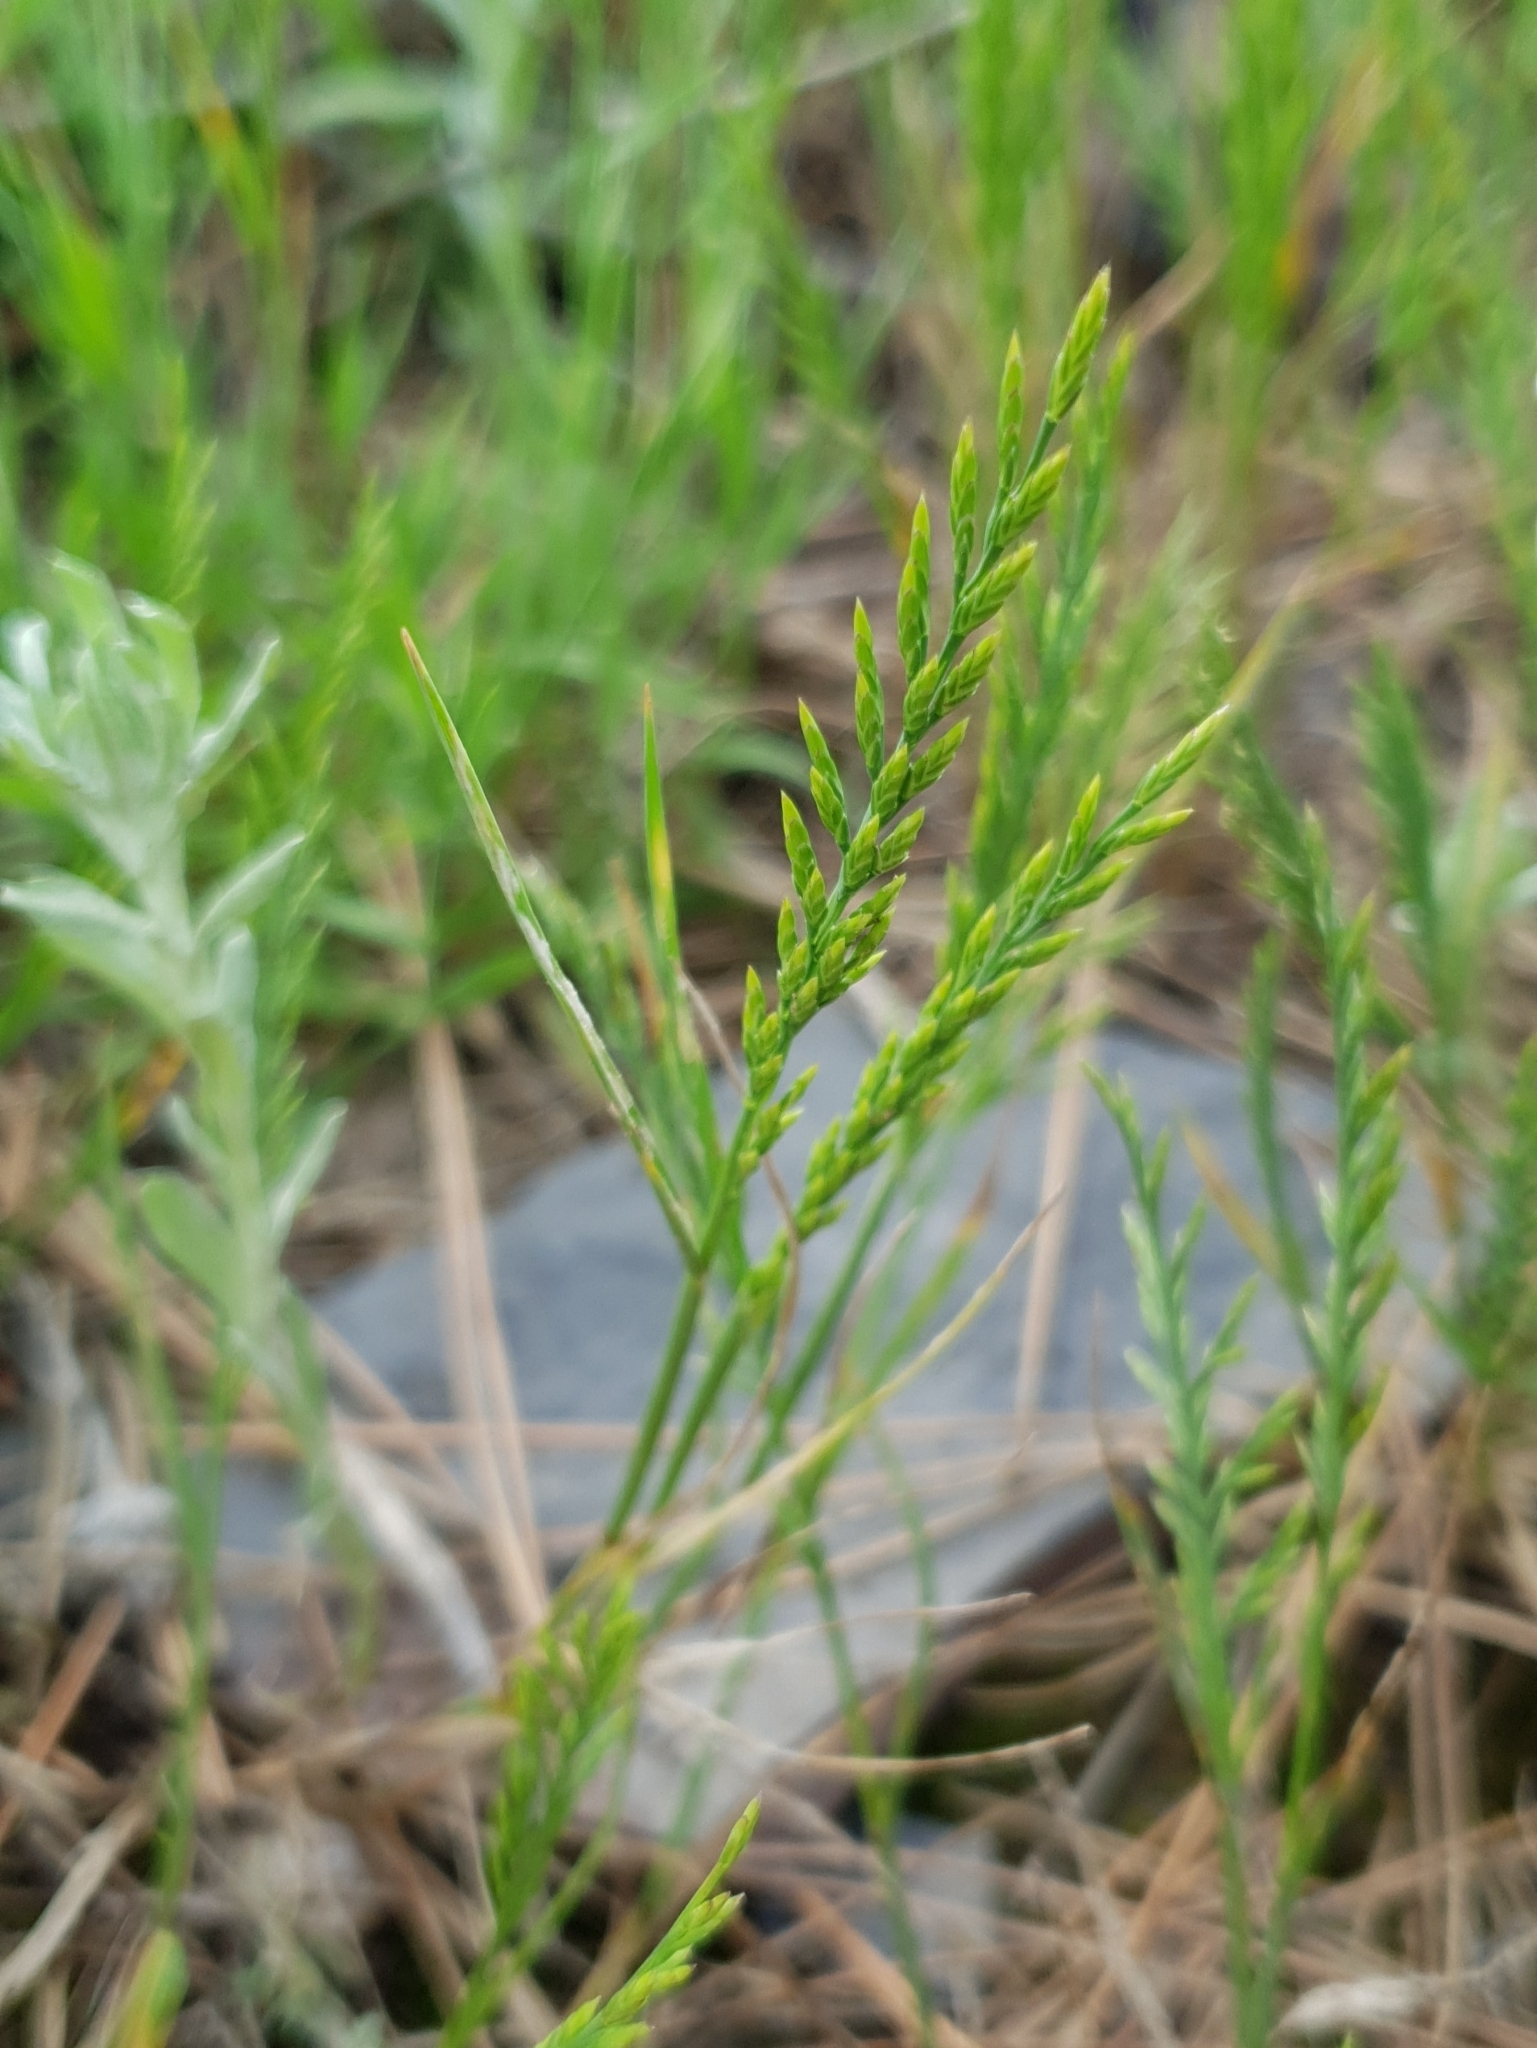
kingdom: Plantae
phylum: Tracheophyta
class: Liliopsida
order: Poales
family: Poaceae
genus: Catapodium
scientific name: Catapodium rigidum
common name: Fern-grass
